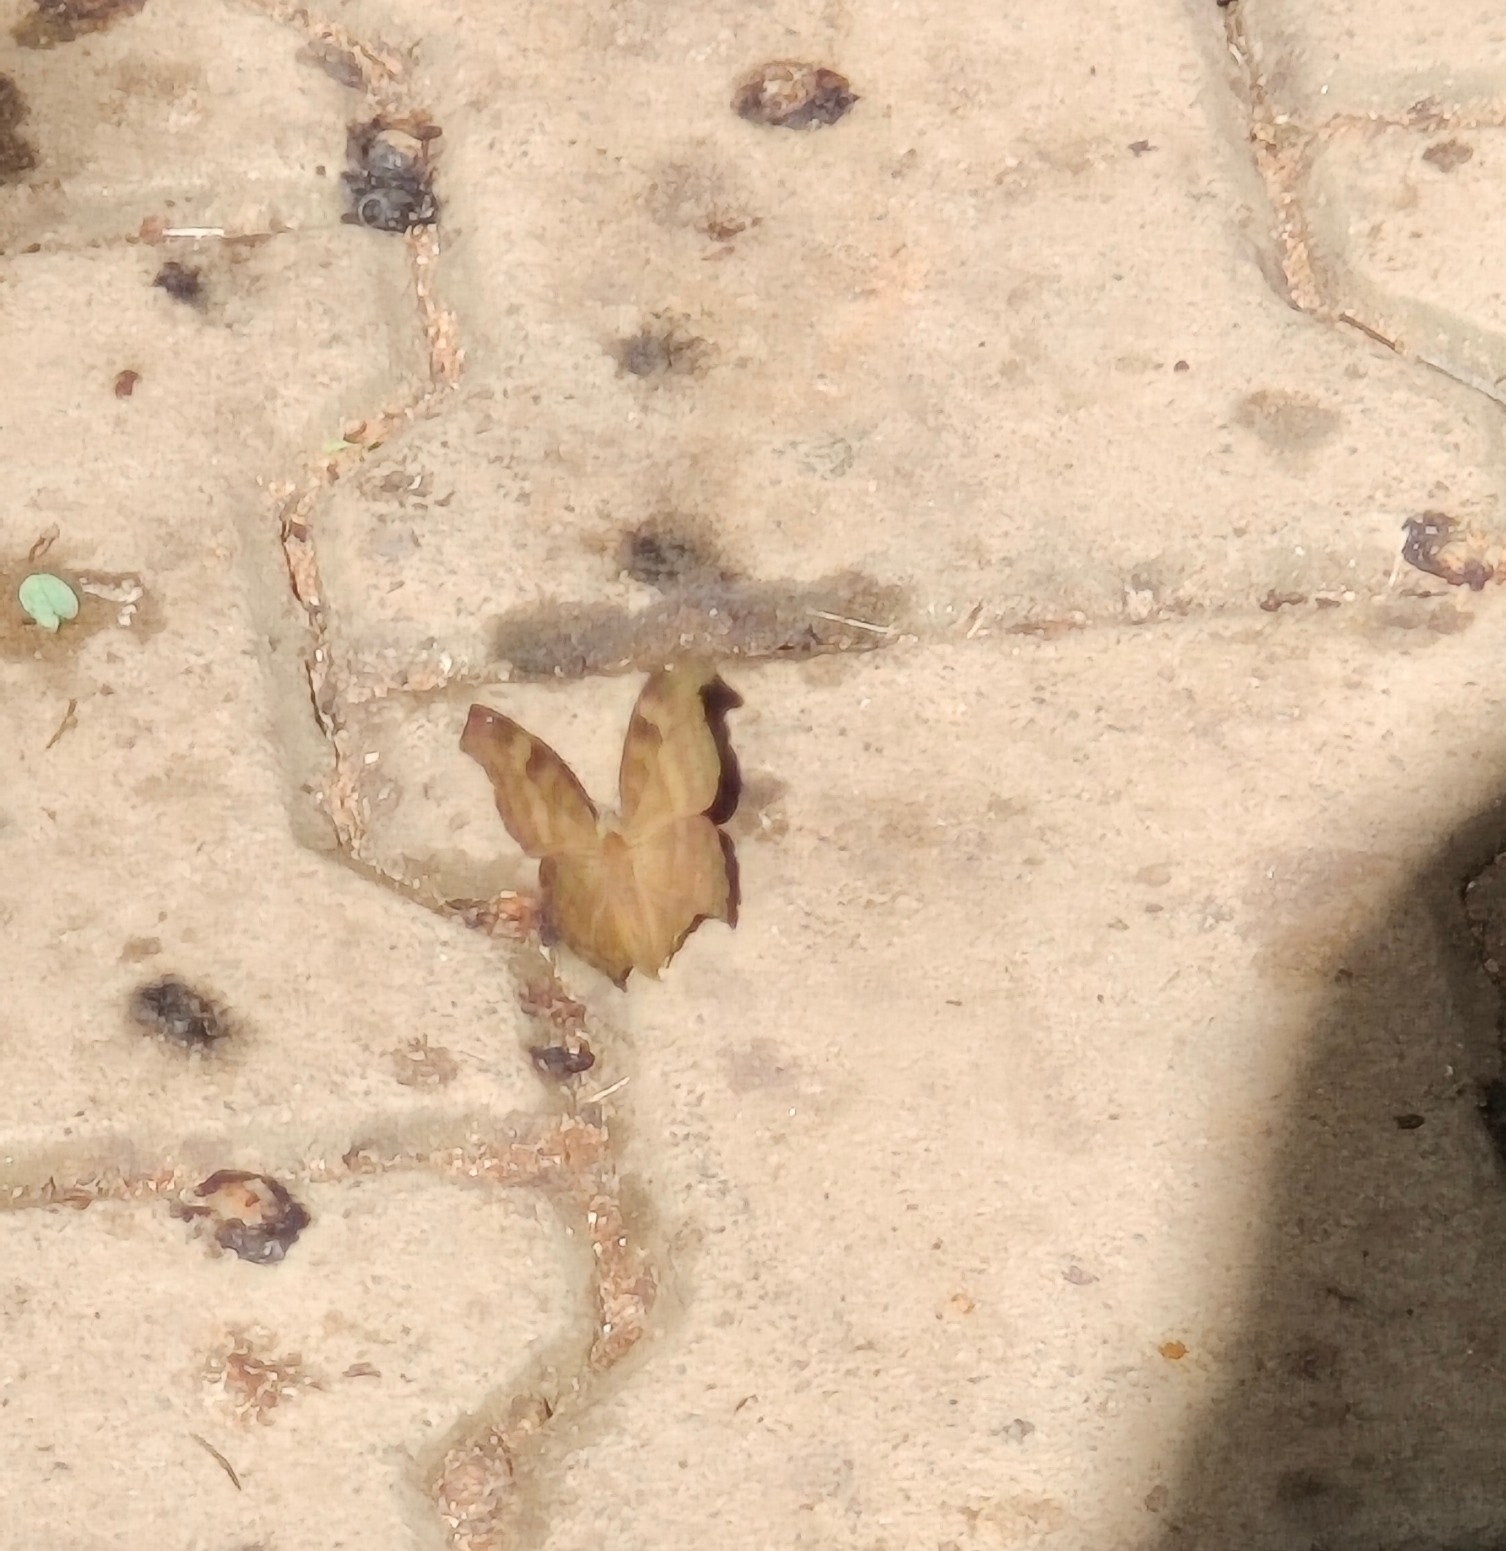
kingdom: Animalia
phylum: Arthropoda
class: Insecta
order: Lepidoptera
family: Nymphalidae
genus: Junonia
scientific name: Junonia iphita
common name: Chocolate pansy
